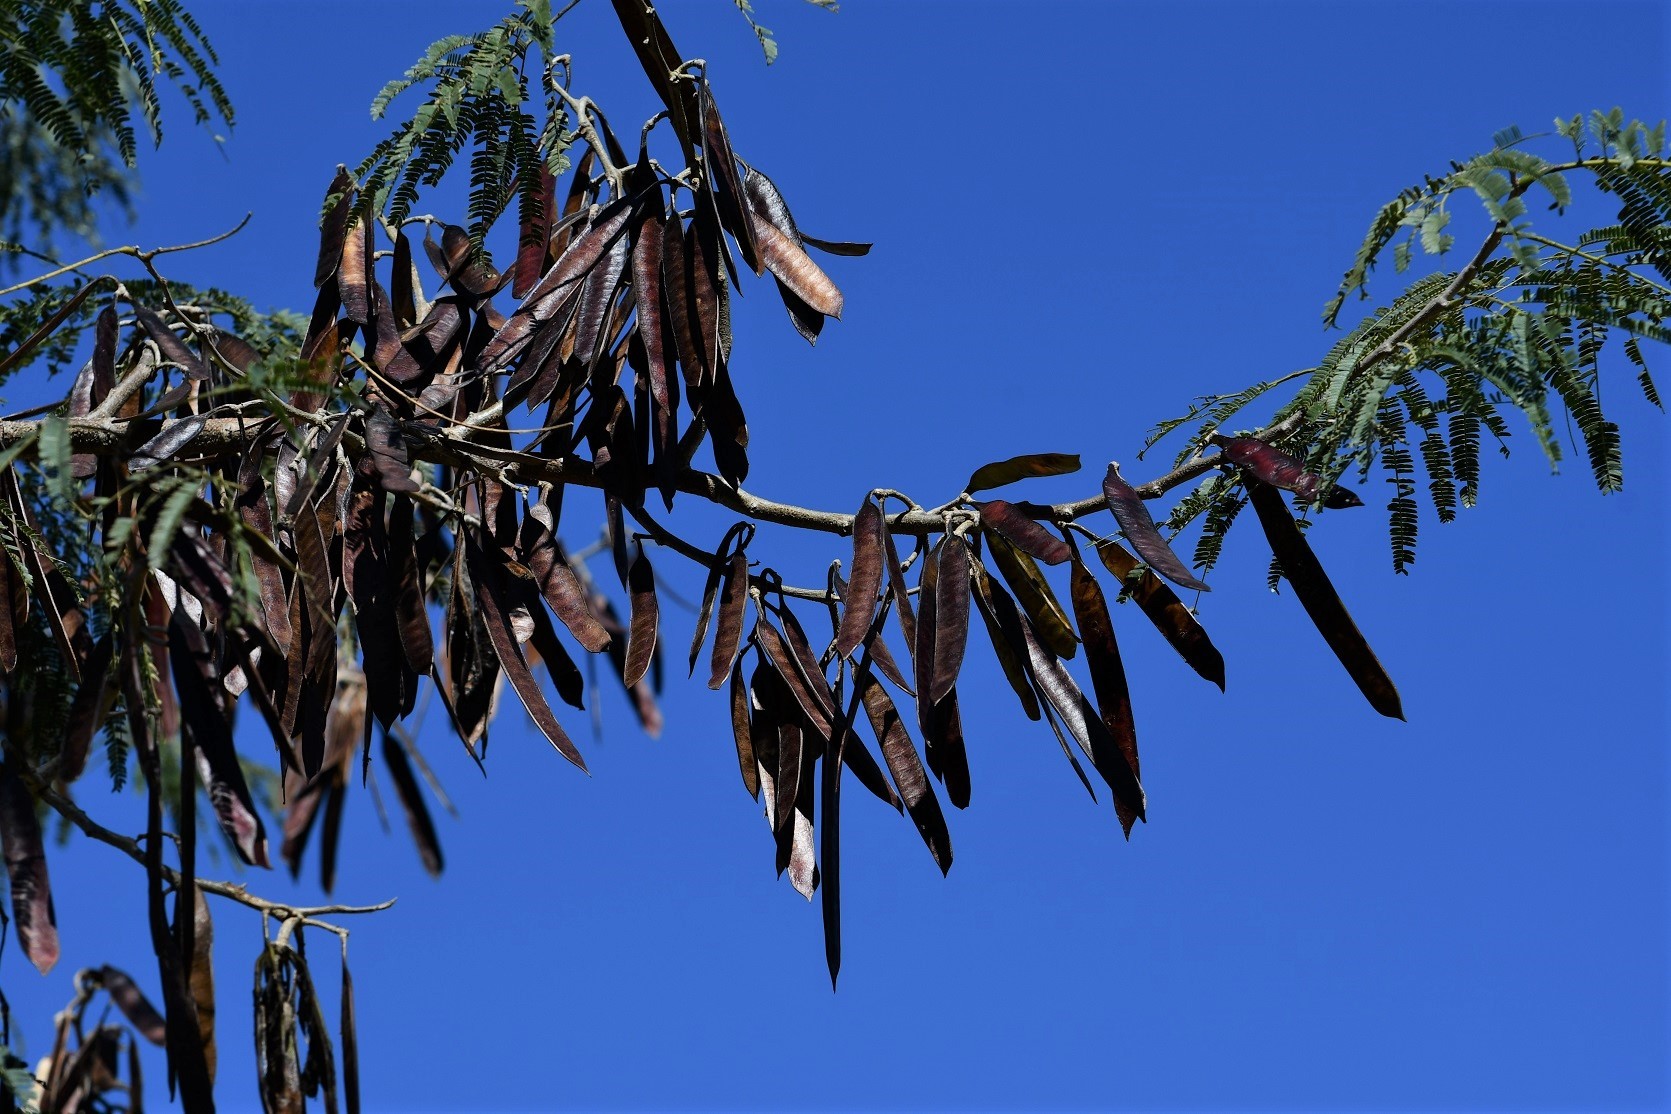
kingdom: Plantae
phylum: Tracheophyta
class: Magnoliopsida
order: Fabales
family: Fabaceae
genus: Leucaena
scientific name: Leucaena diversifolia
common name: Red leucaena
